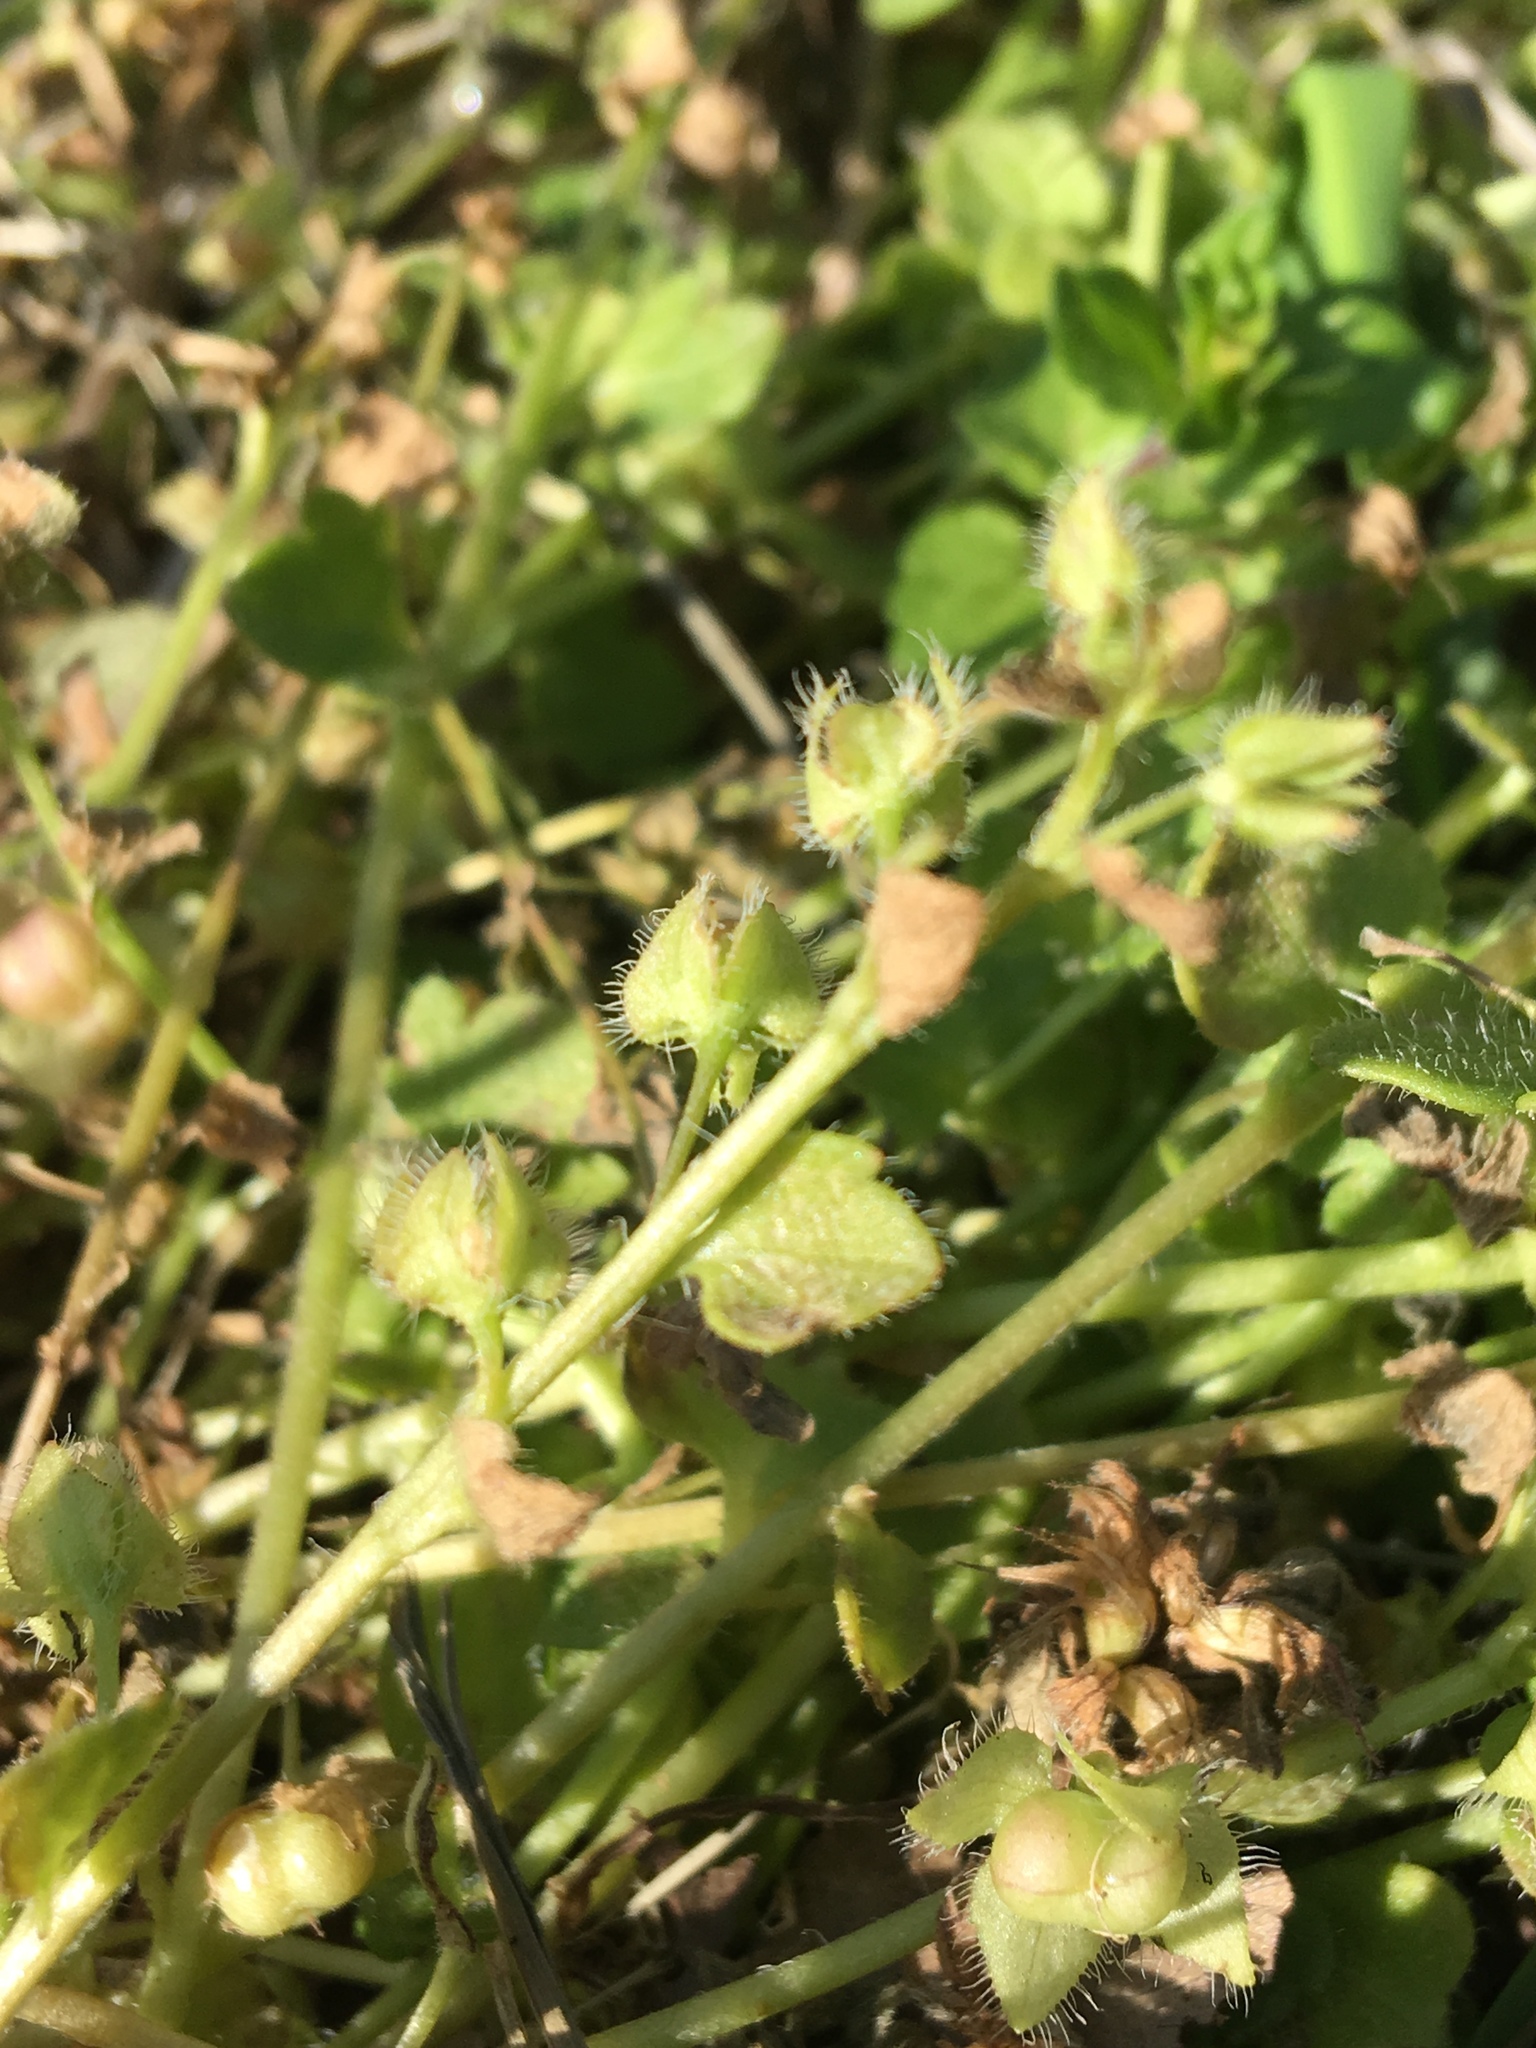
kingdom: Plantae
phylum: Tracheophyta
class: Magnoliopsida
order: Lamiales
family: Plantaginaceae
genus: Veronica
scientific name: Veronica hederifolia
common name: Ivy-leaved speedwell
